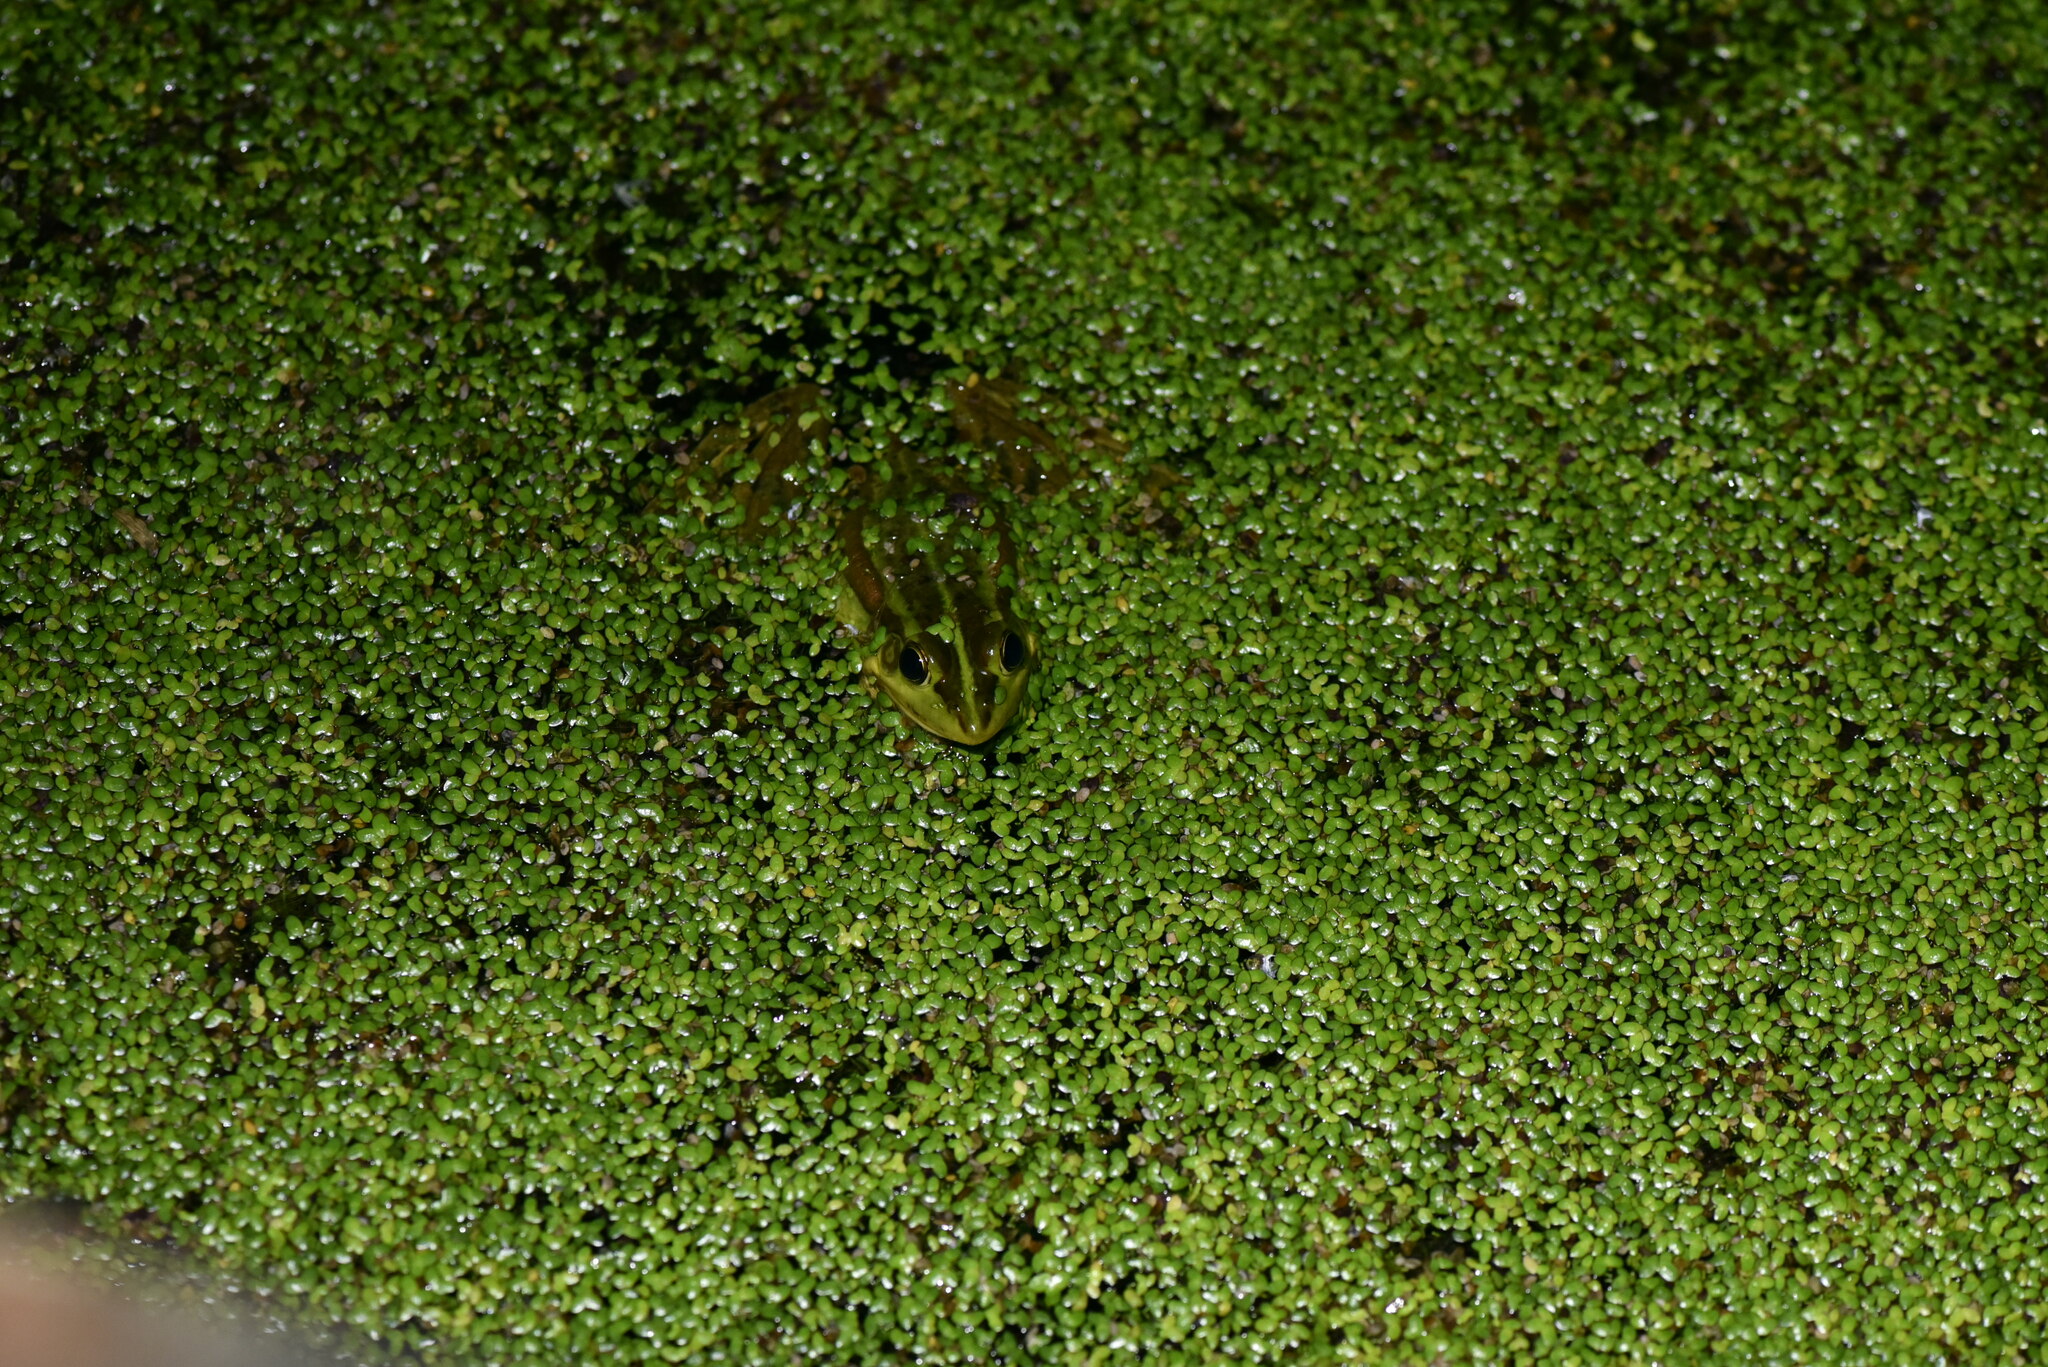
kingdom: Animalia
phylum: Chordata
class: Amphibia
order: Anura
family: Ranidae
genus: Pelophylax
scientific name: Pelophylax fukienensis
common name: Fukien gold-striped pond frog
